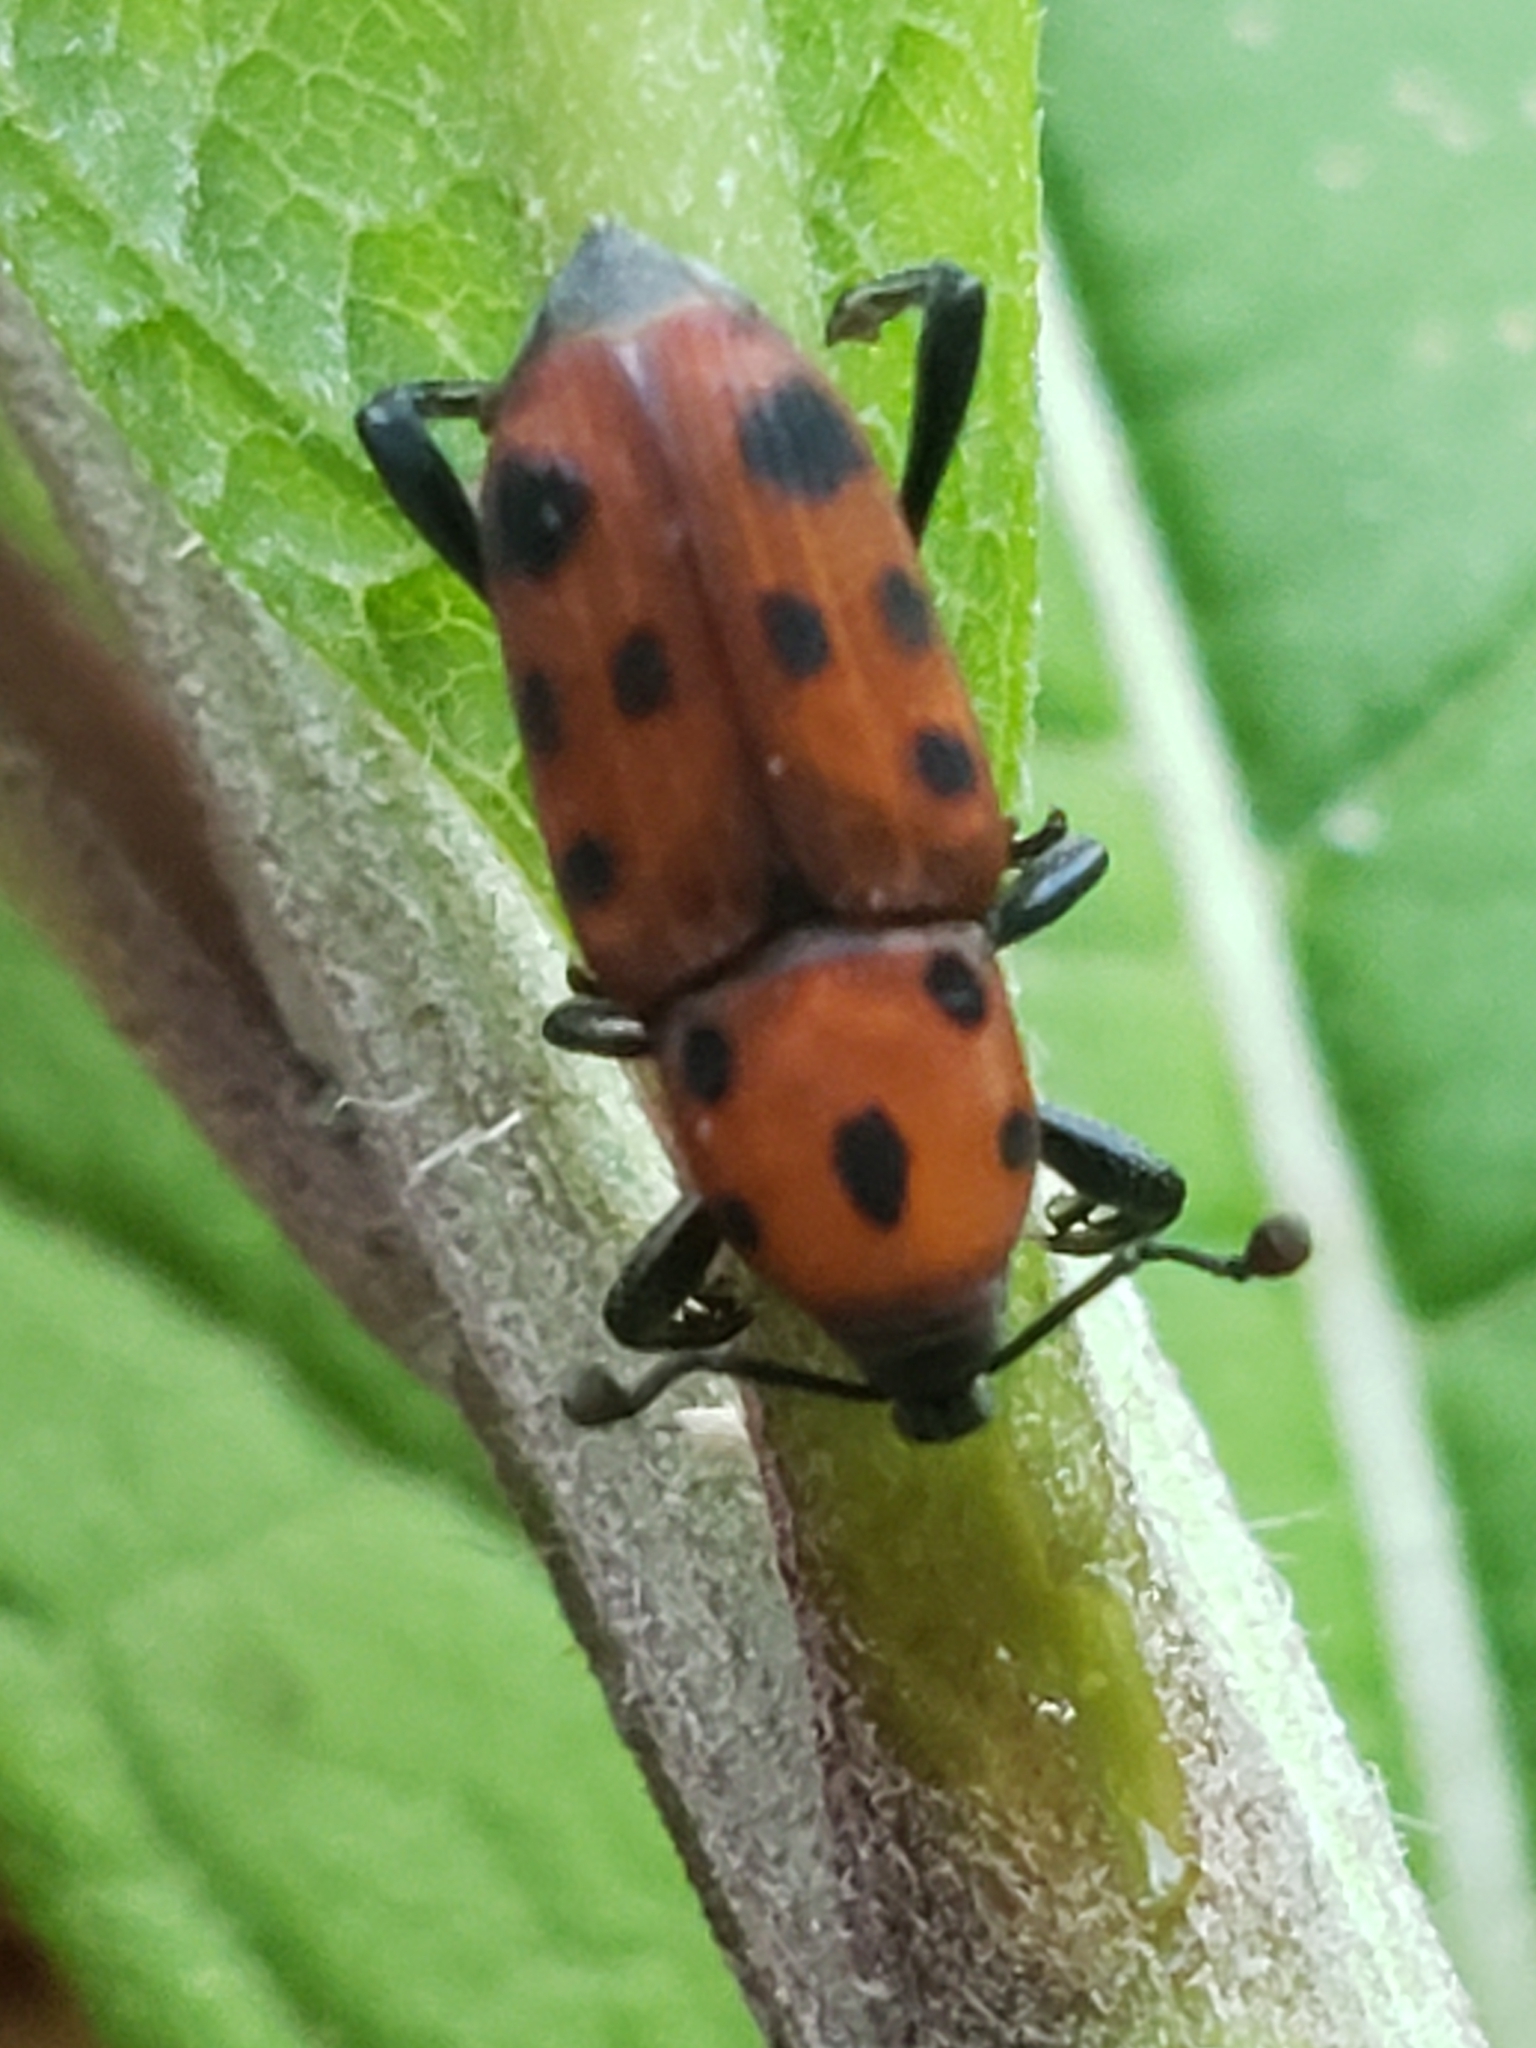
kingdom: Animalia
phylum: Arthropoda
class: Insecta
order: Coleoptera
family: Dryophthoridae
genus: Rhodobaenus
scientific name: Rhodobaenus tredecimpunctatus
